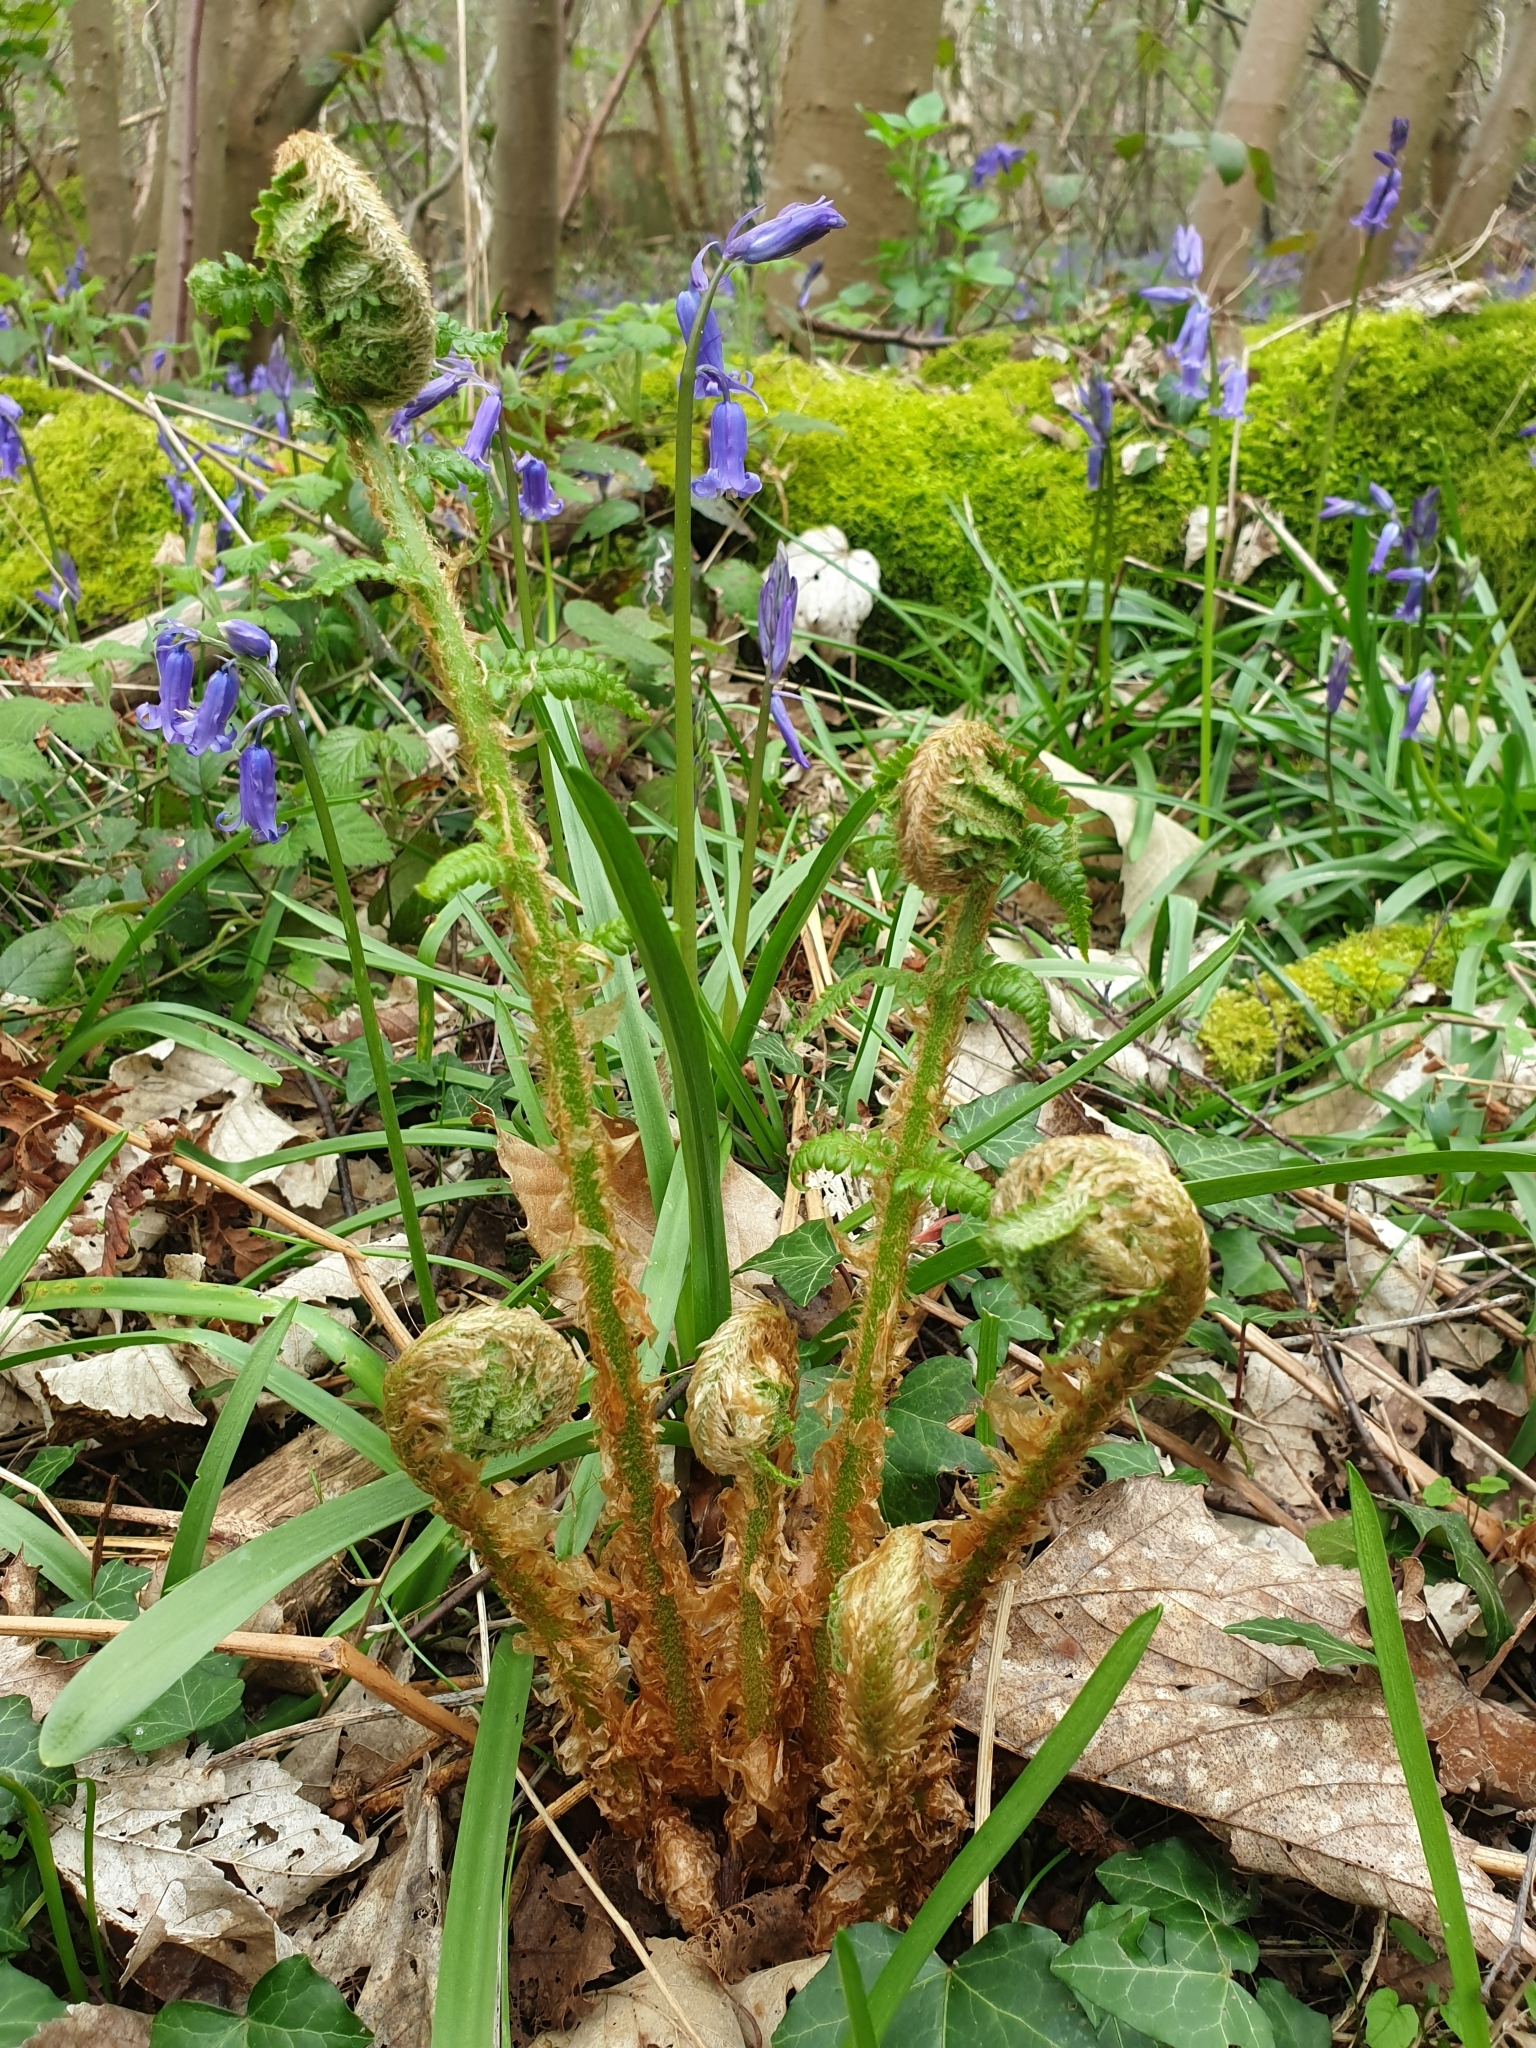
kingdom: Plantae
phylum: Tracheophyta
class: Polypodiopsida
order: Polypodiales
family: Dryopteridaceae
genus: Dryopteris
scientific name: Dryopteris filix-mas
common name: Male fern
